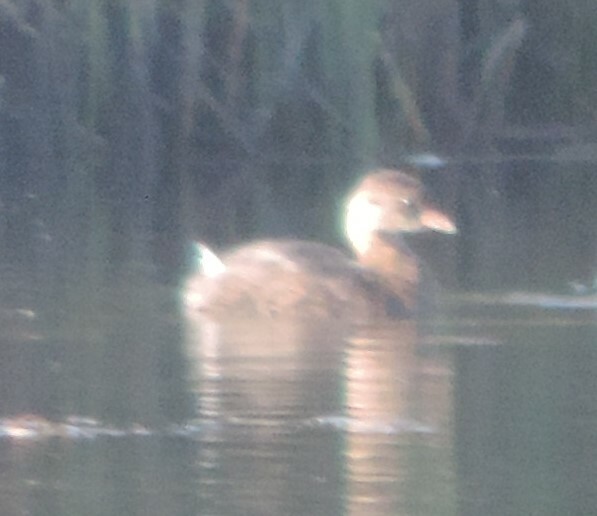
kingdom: Animalia
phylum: Chordata
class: Aves
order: Podicipediformes
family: Podicipedidae
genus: Podilymbus
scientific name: Podilymbus podiceps
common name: Pied-billed grebe
